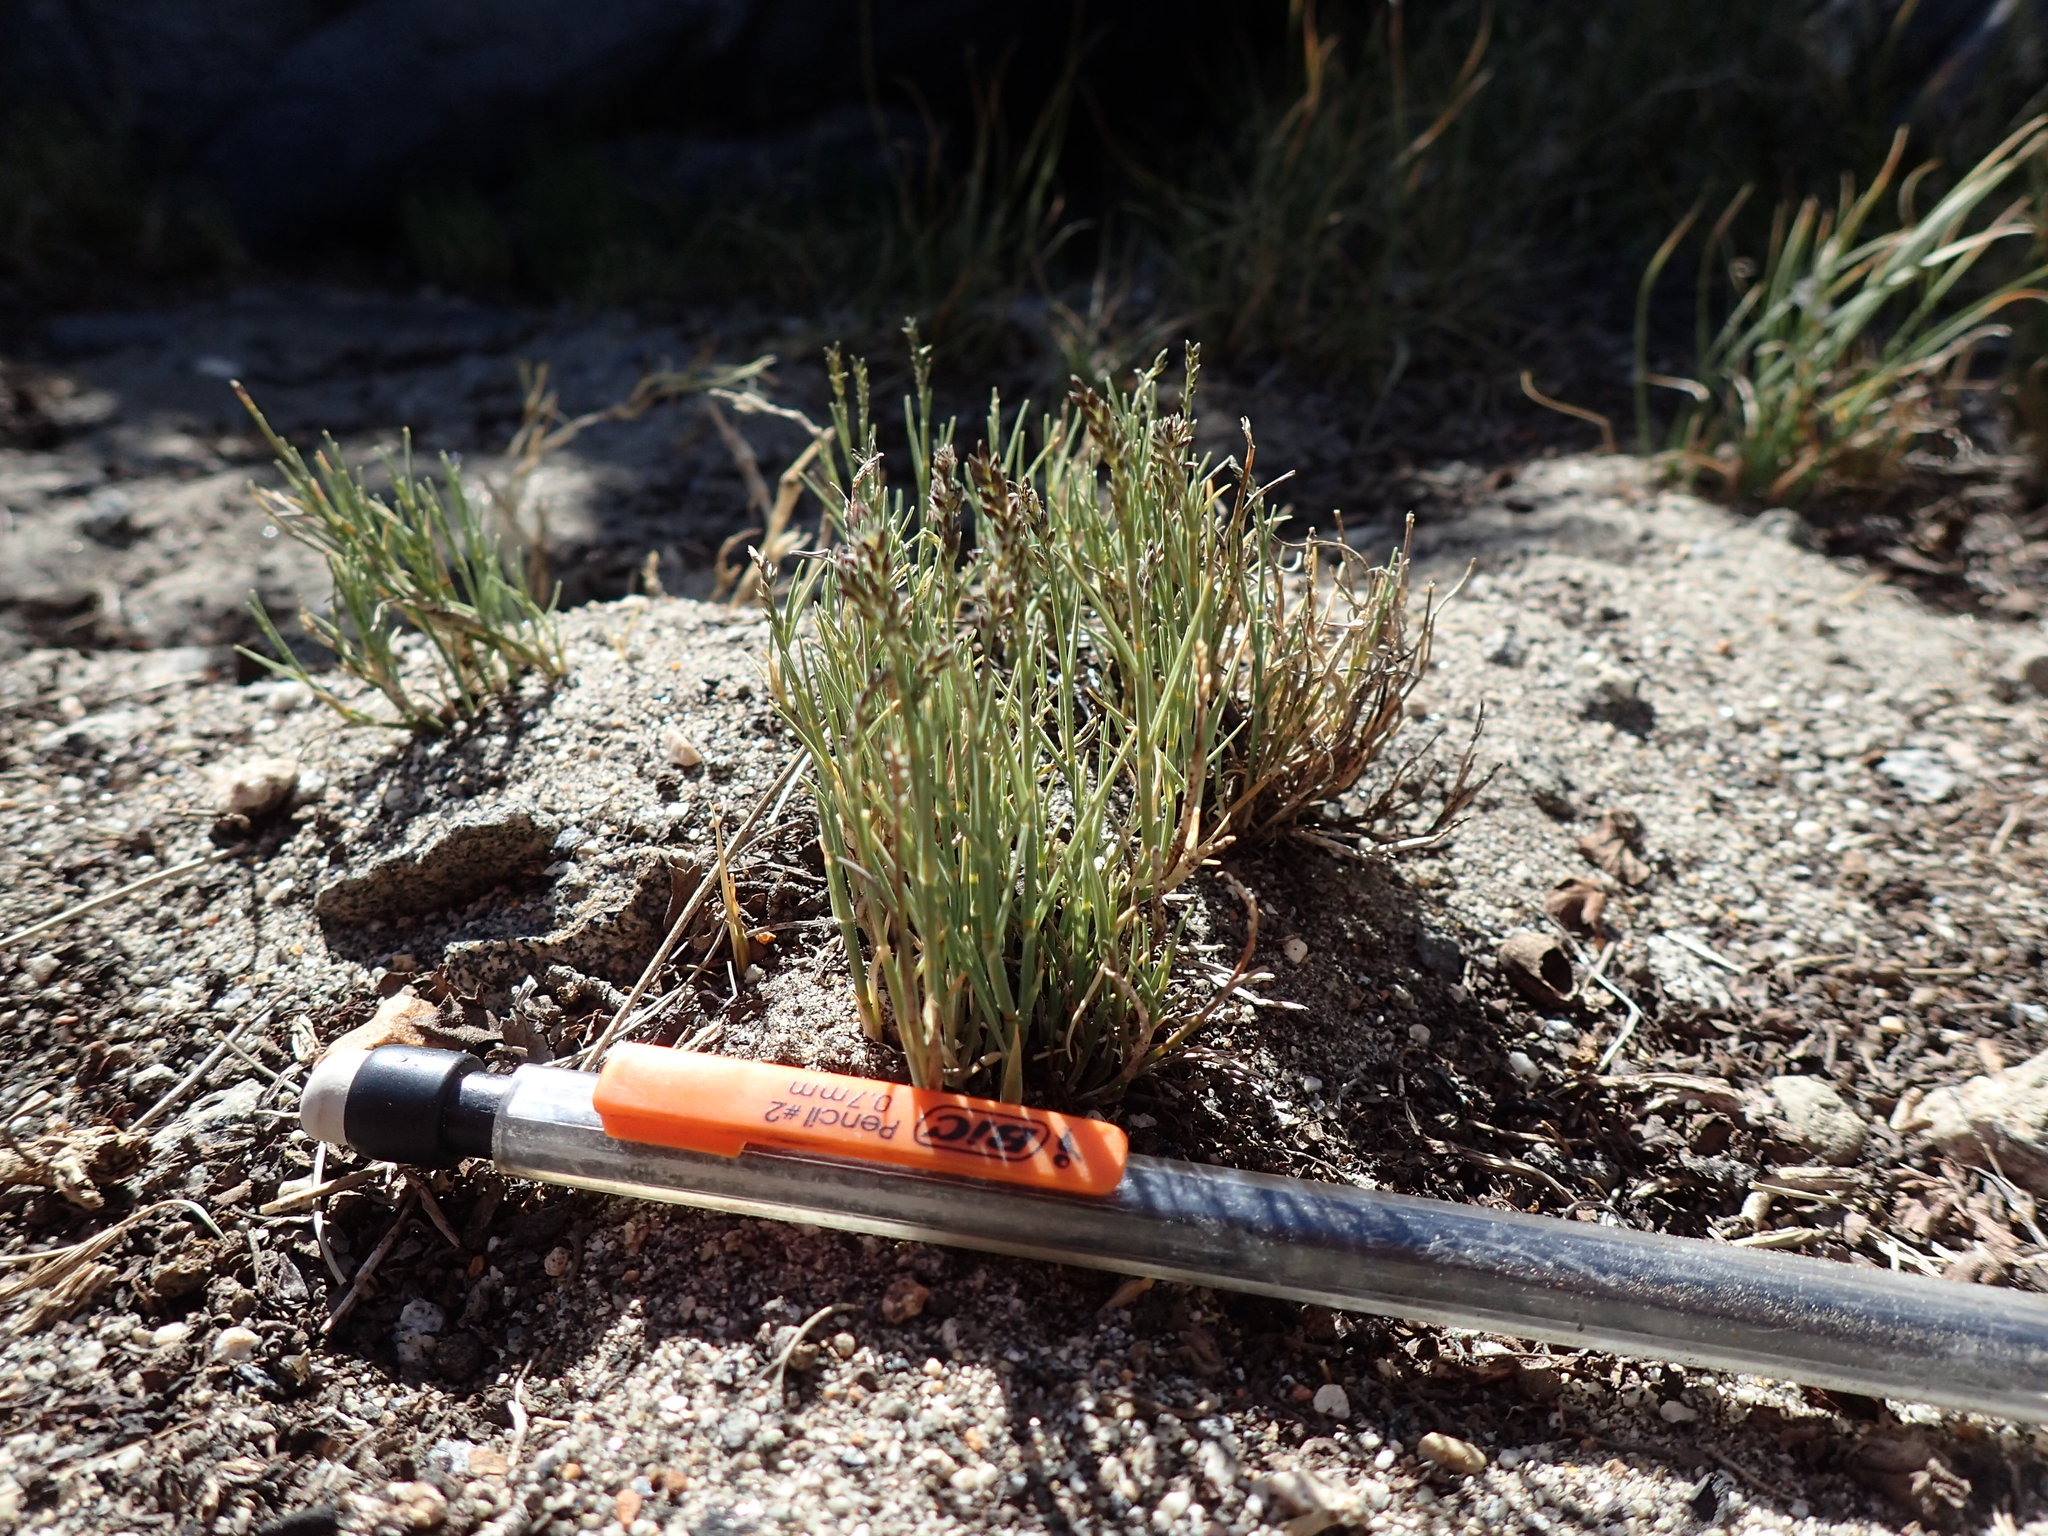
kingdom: Plantae
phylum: Tracheophyta
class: Liliopsida
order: Poales
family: Poaceae
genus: Muhlenbergia
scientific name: Muhlenbergia richardsonis
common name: Mat muhly
